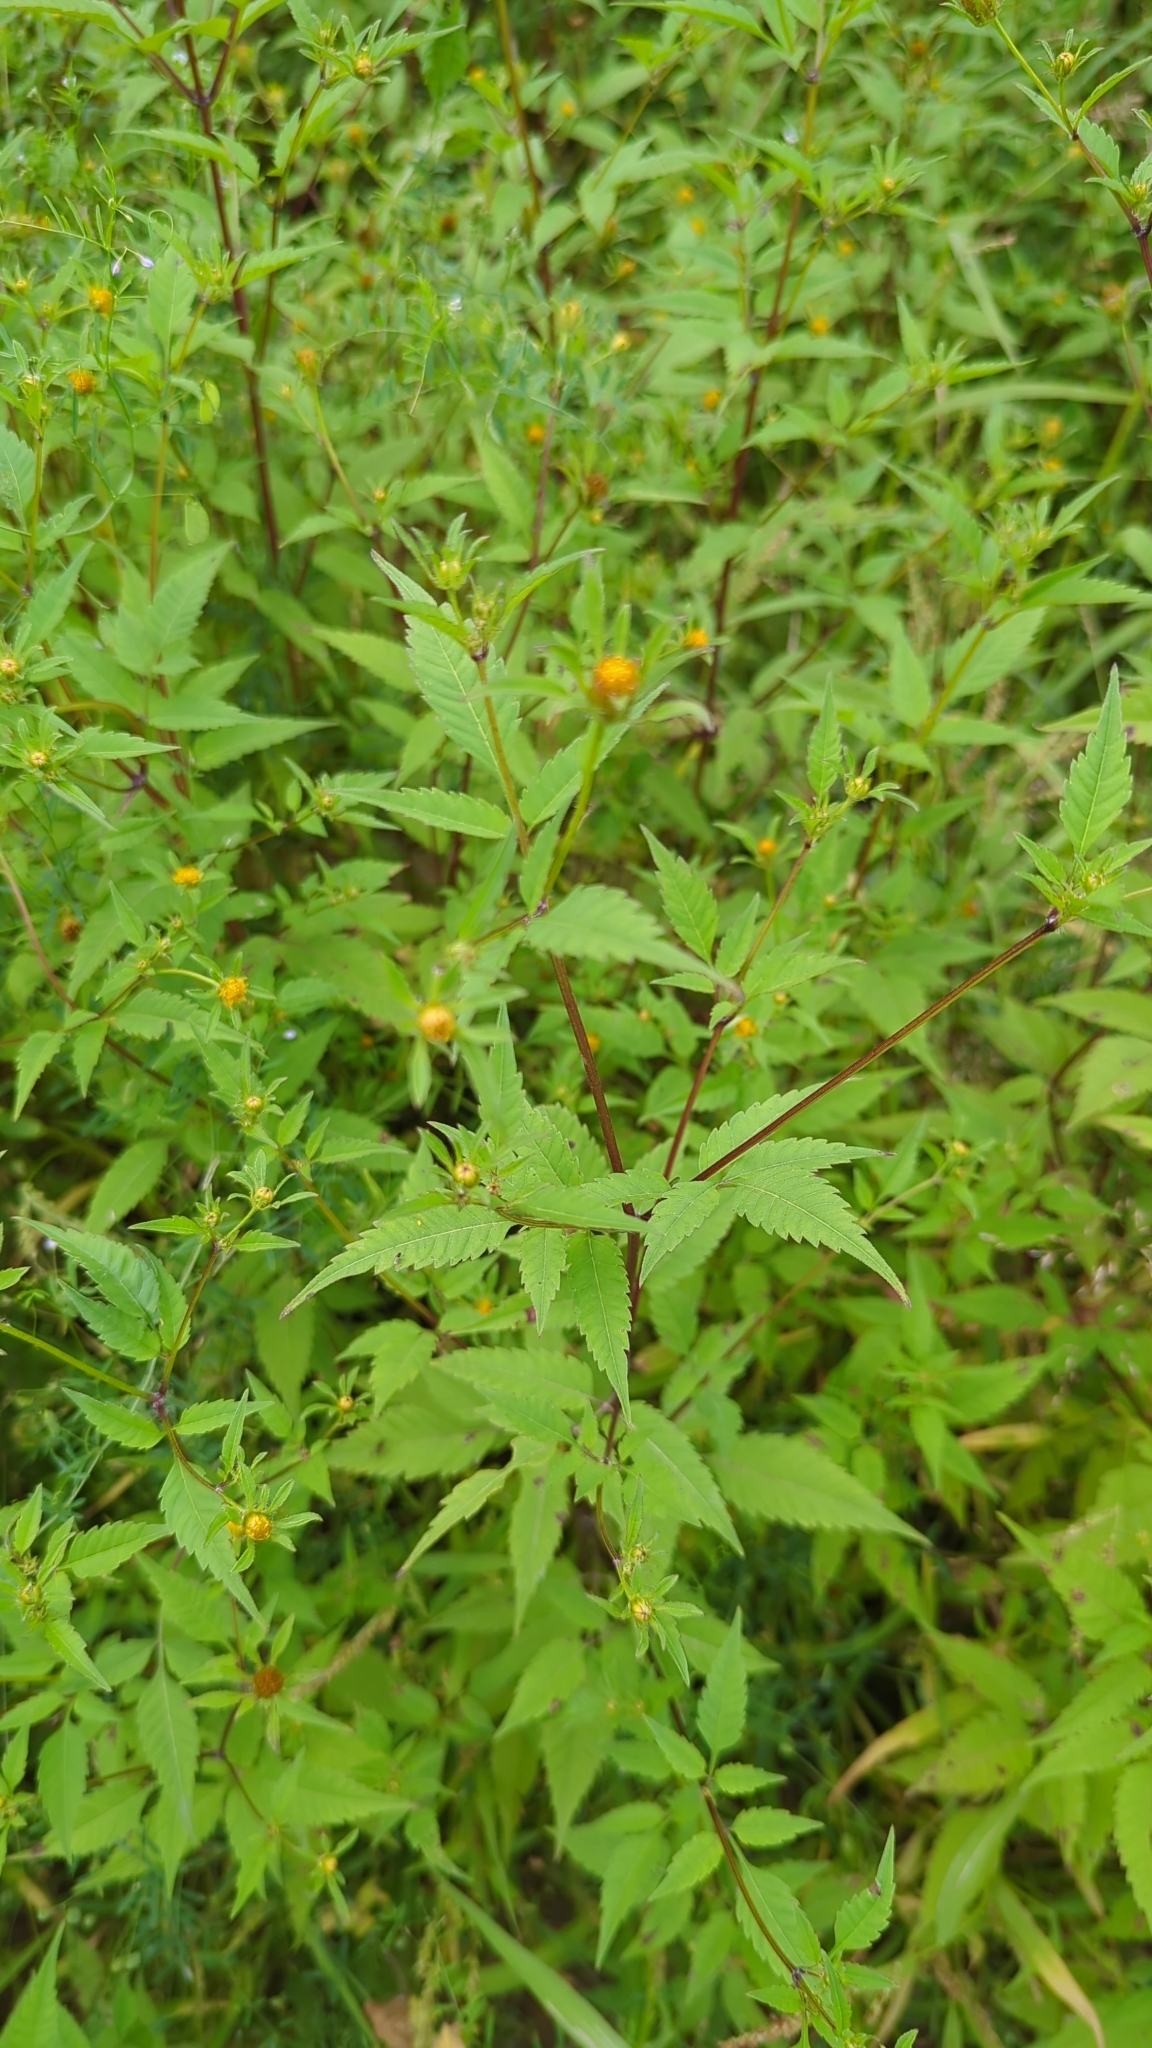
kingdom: Plantae
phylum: Tracheophyta
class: Magnoliopsida
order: Asterales
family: Asteraceae
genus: Bidens
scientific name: Bidens frondosa
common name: Beggarticks
